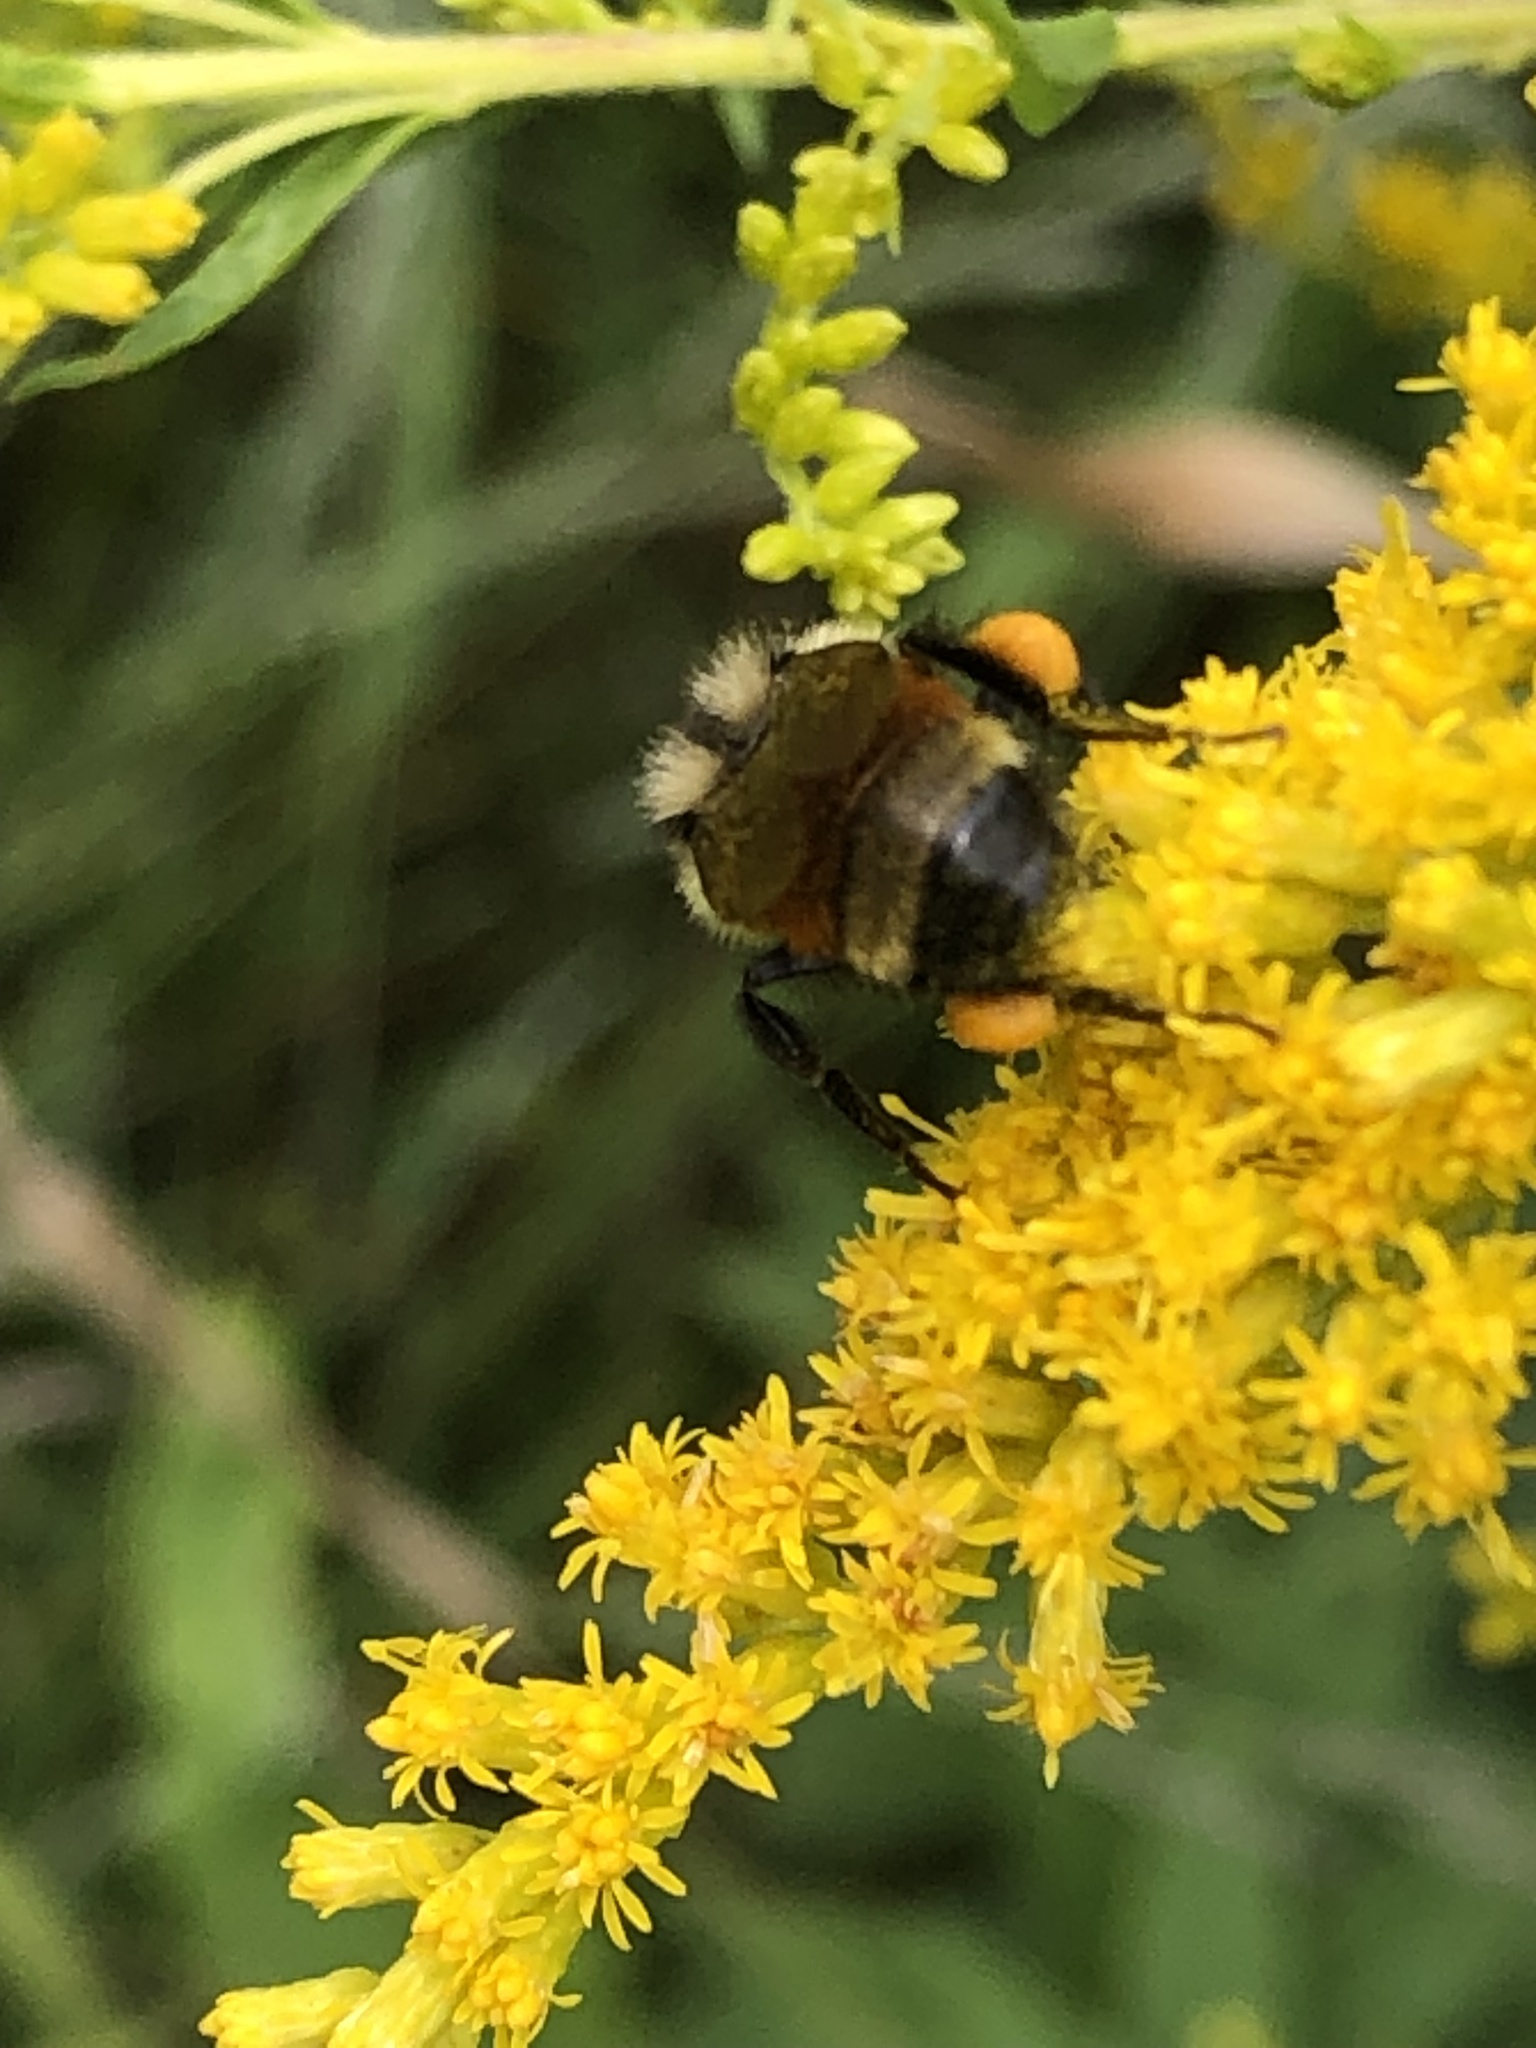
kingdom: Animalia
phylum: Arthropoda
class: Insecta
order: Hymenoptera
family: Apidae
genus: Bombus
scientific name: Bombus ternarius
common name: Tri-colored bumble bee
